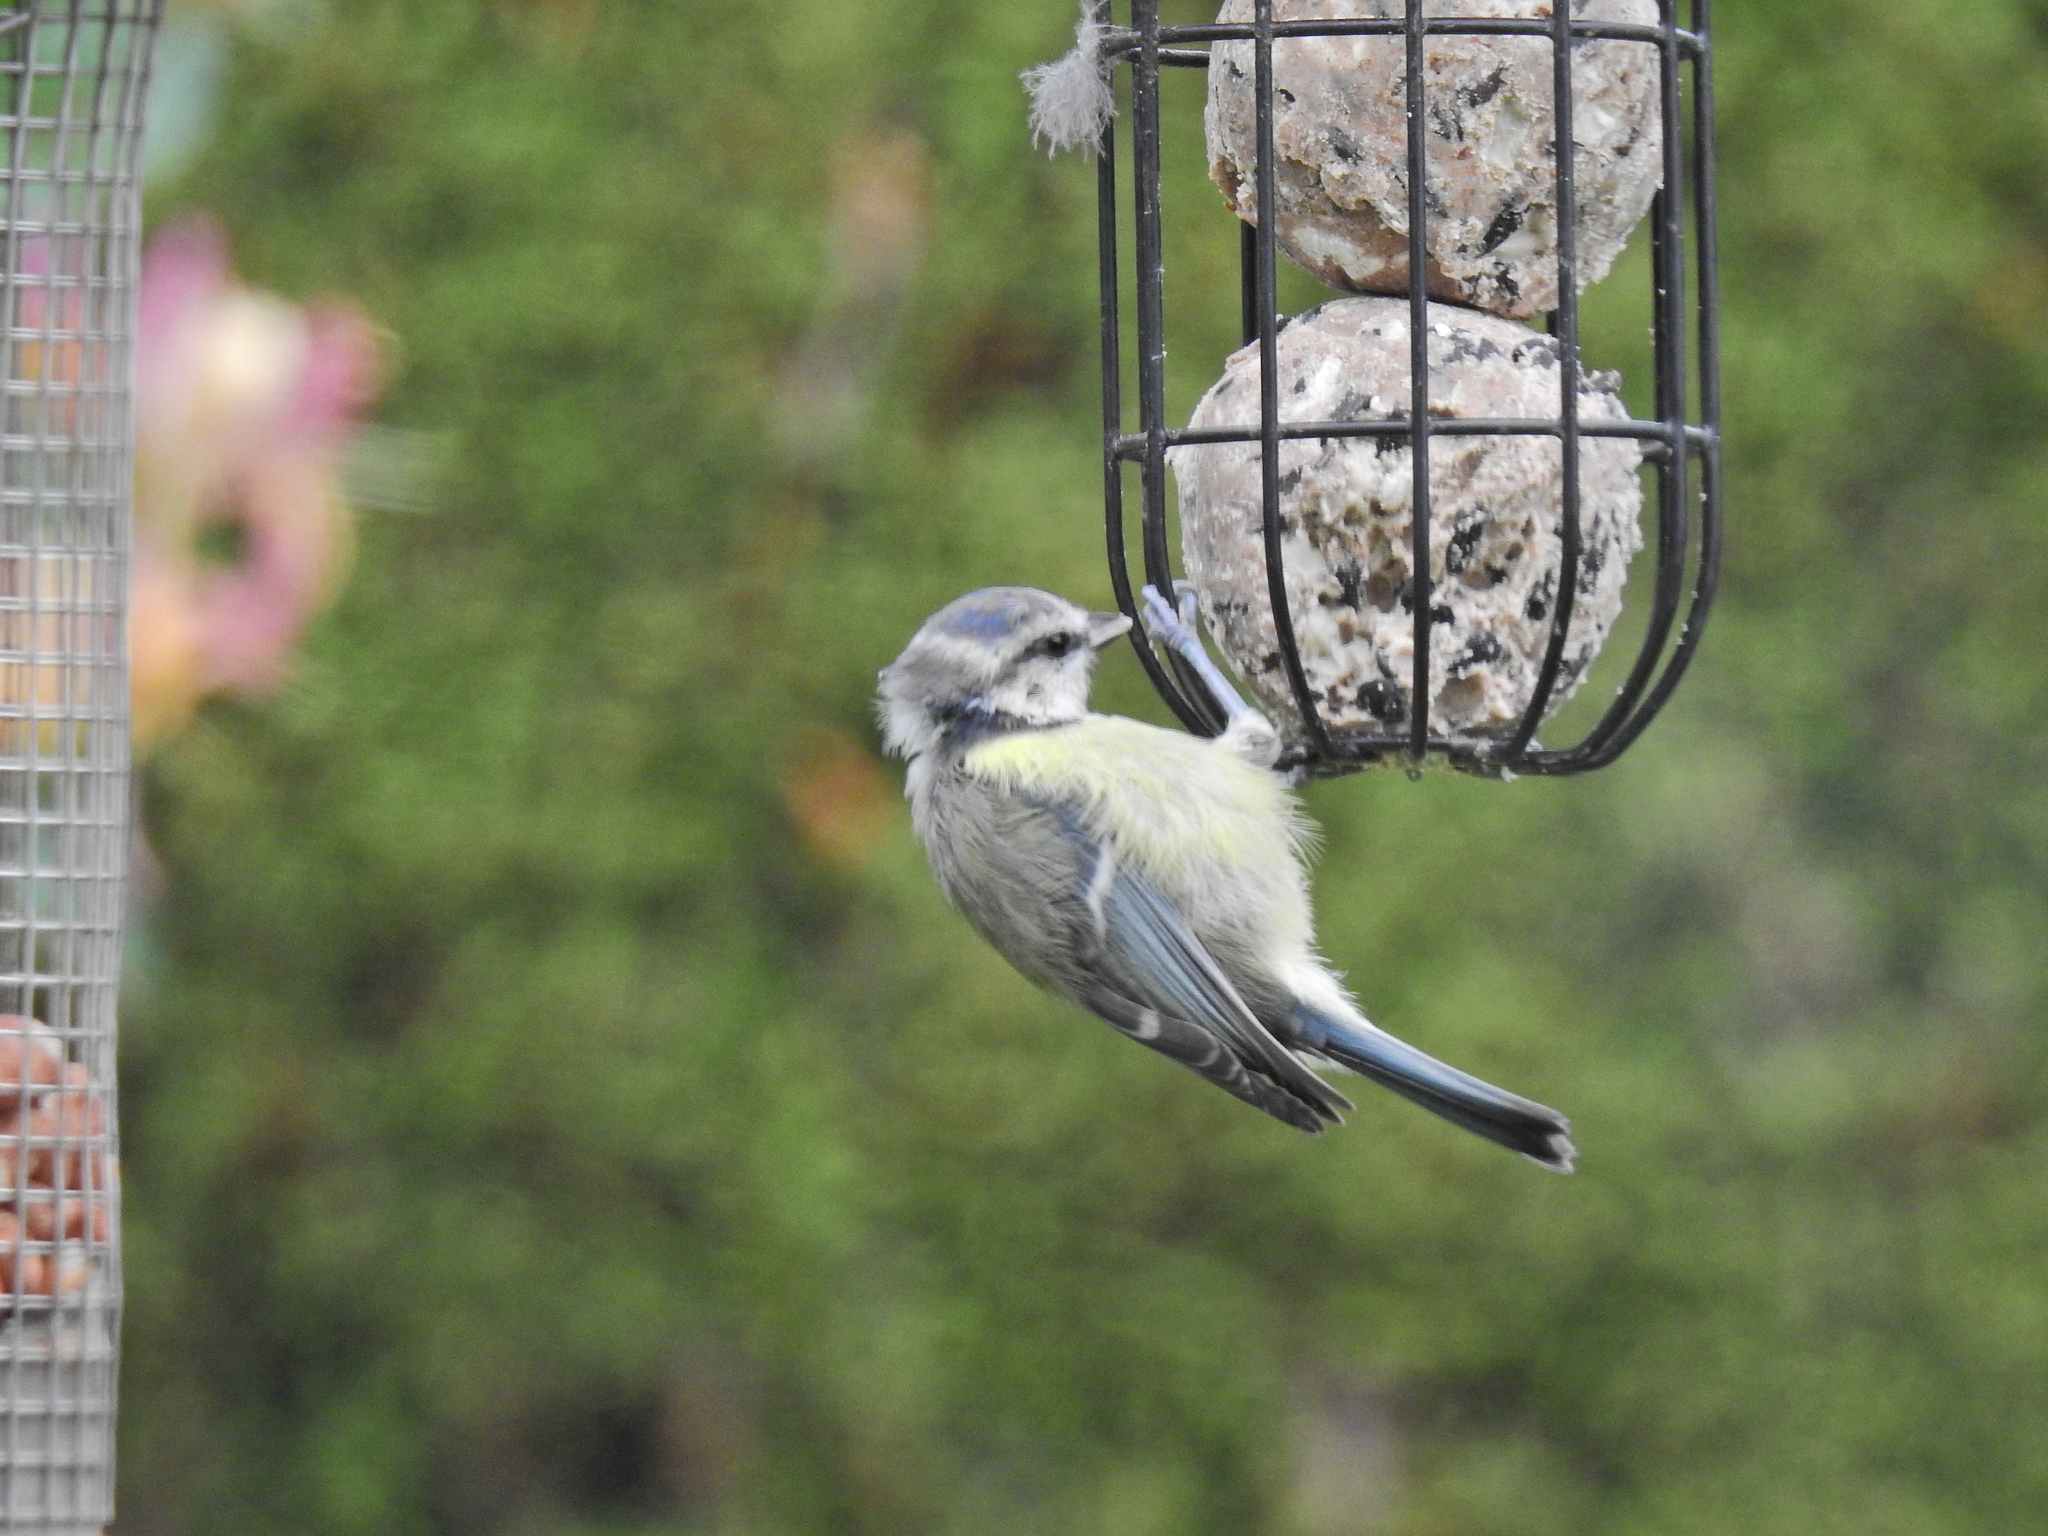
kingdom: Animalia
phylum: Chordata
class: Aves
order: Passeriformes
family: Paridae
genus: Cyanistes
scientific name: Cyanistes caeruleus
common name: Eurasian blue tit
